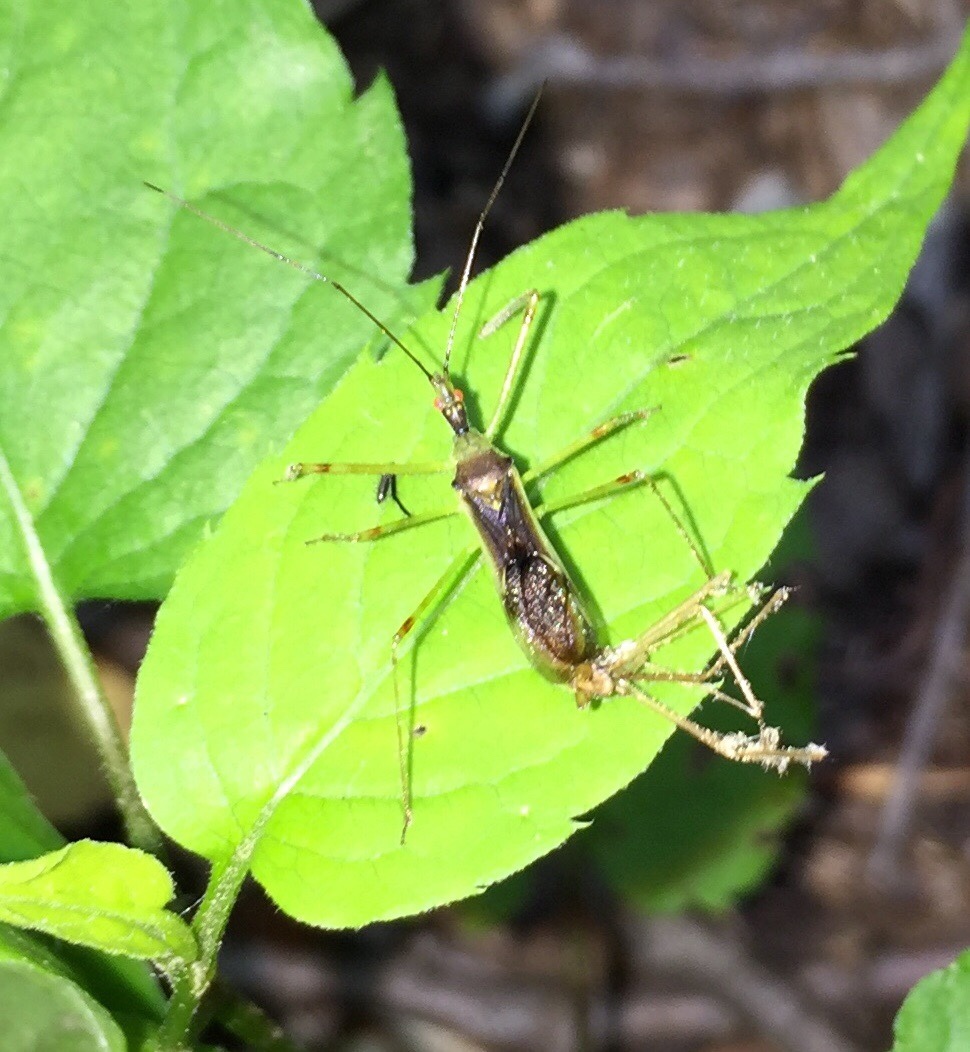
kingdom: Animalia
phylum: Arthropoda
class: Insecta
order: Hemiptera
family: Reduviidae
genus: Zelus
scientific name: Zelus luridus
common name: Pale green assassin bug
